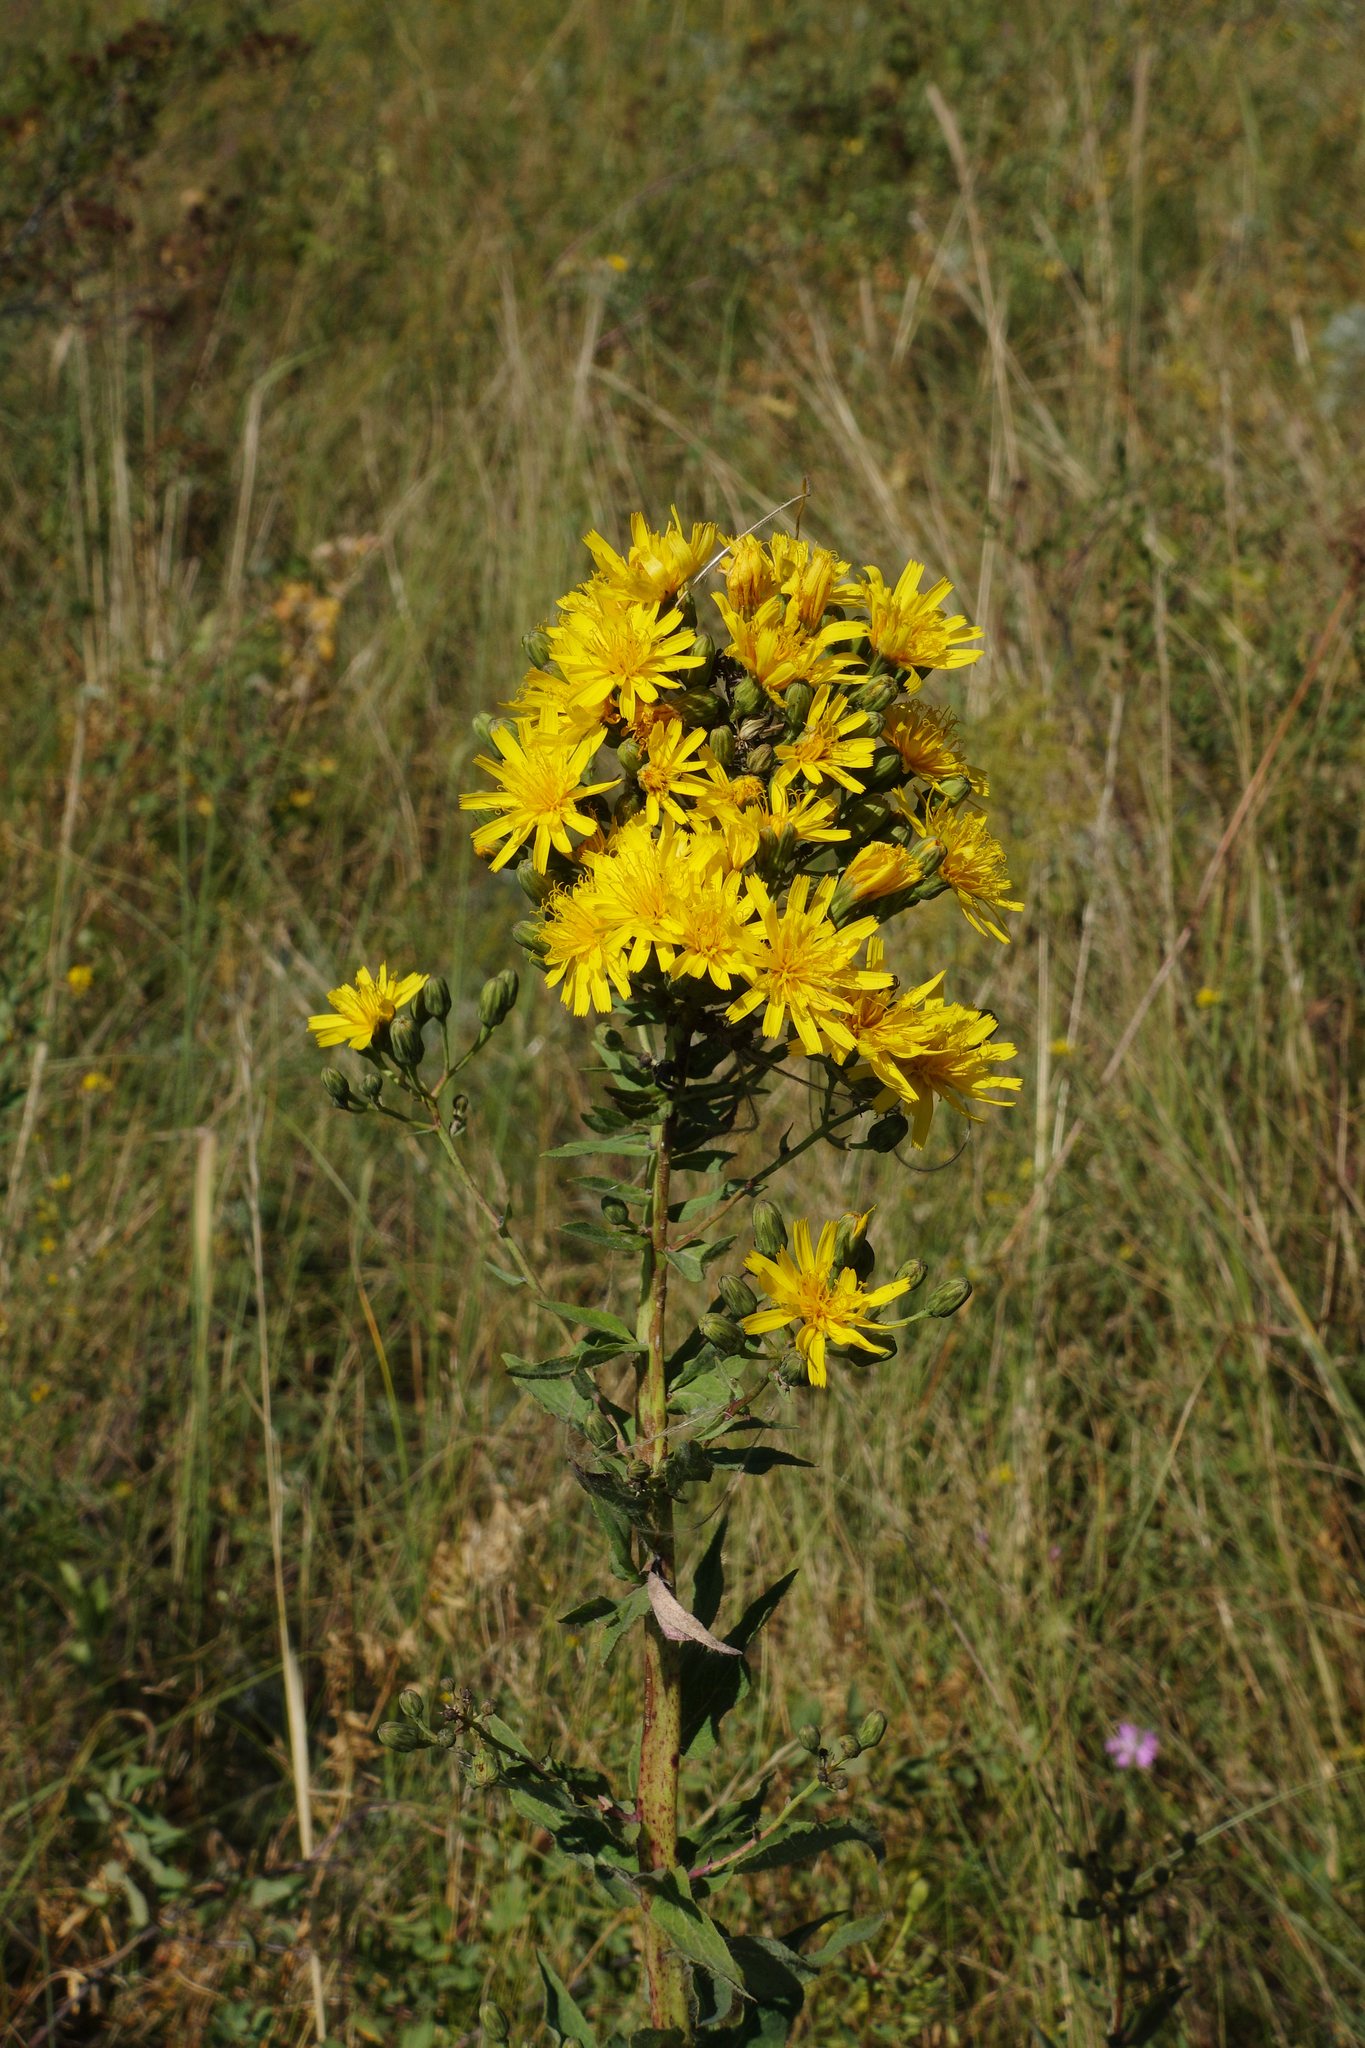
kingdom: Plantae
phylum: Tracheophyta
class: Magnoliopsida
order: Asterales
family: Asteraceae
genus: Hieracium
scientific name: Hieracium virosum
